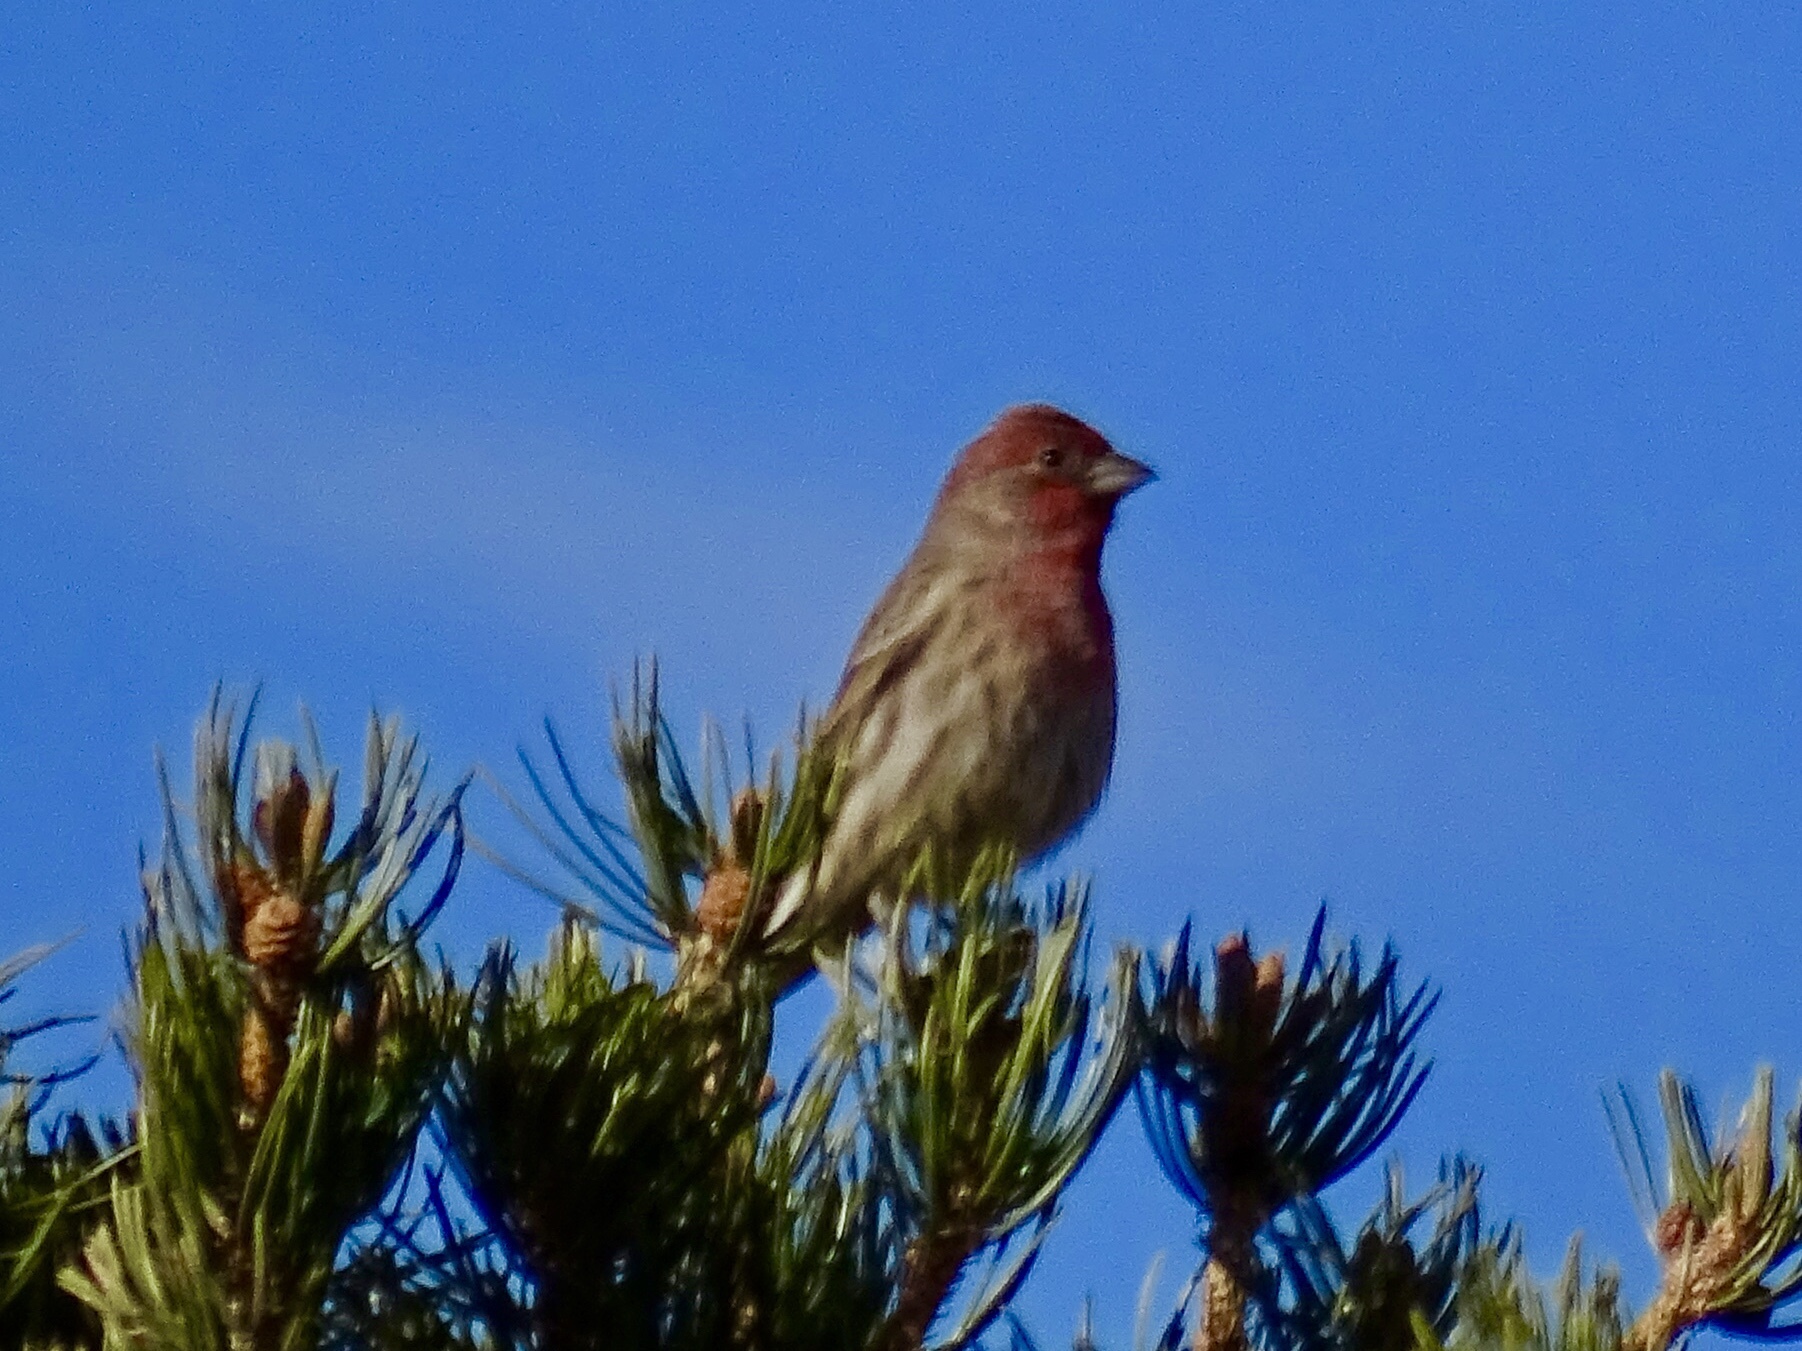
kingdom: Animalia
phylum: Chordata
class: Aves
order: Passeriformes
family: Fringillidae
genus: Haemorhous
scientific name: Haemorhous mexicanus
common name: House finch
